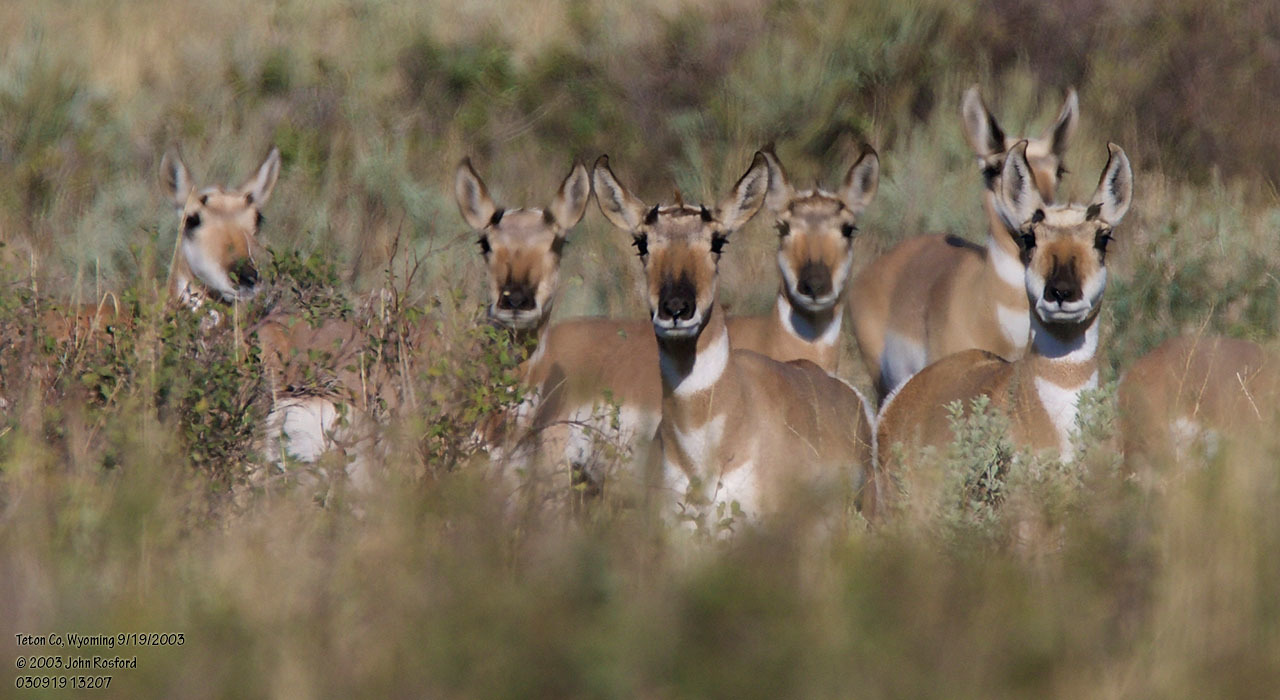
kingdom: Animalia
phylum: Chordata
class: Mammalia
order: Artiodactyla
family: Antilocapridae
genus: Antilocapra
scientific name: Antilocapra americana
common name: Pronghorn
